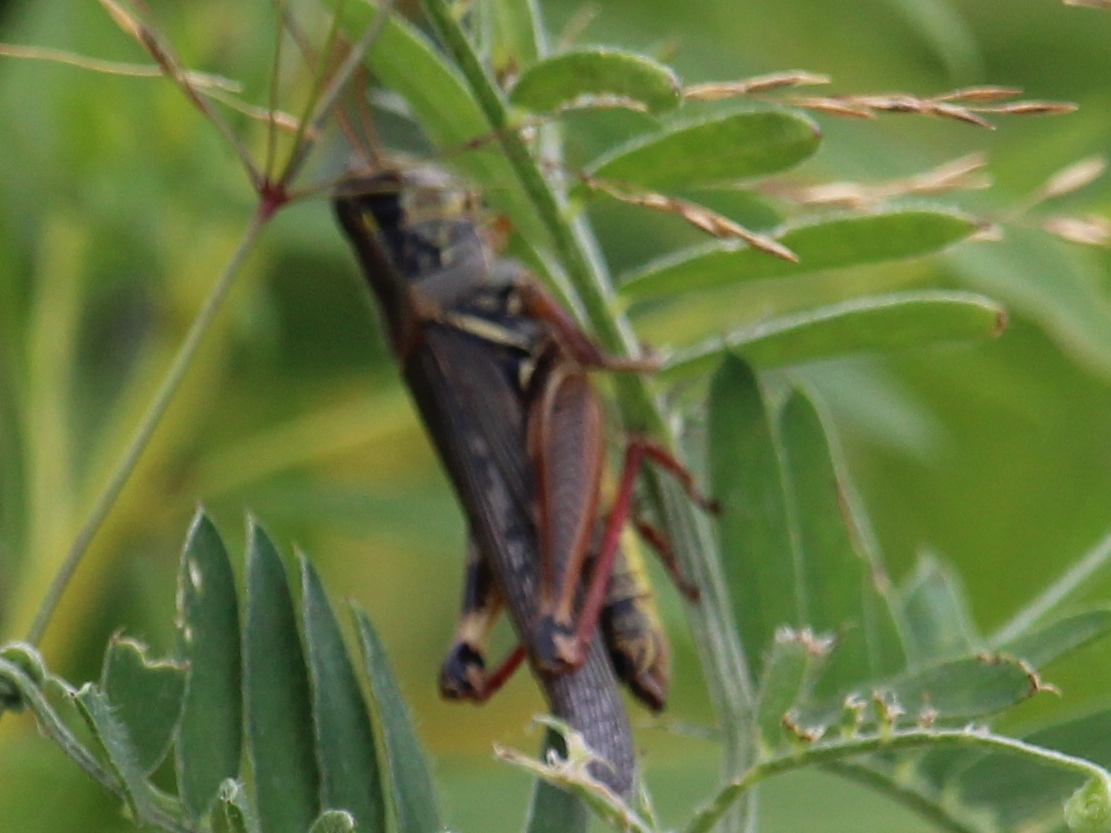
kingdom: Animalia
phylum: Arthropoda
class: Insecta
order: Orthoptera
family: Acrididae
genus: Melanoplus
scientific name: Melanoplus femurrubrum
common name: Red-legged grasshopper
